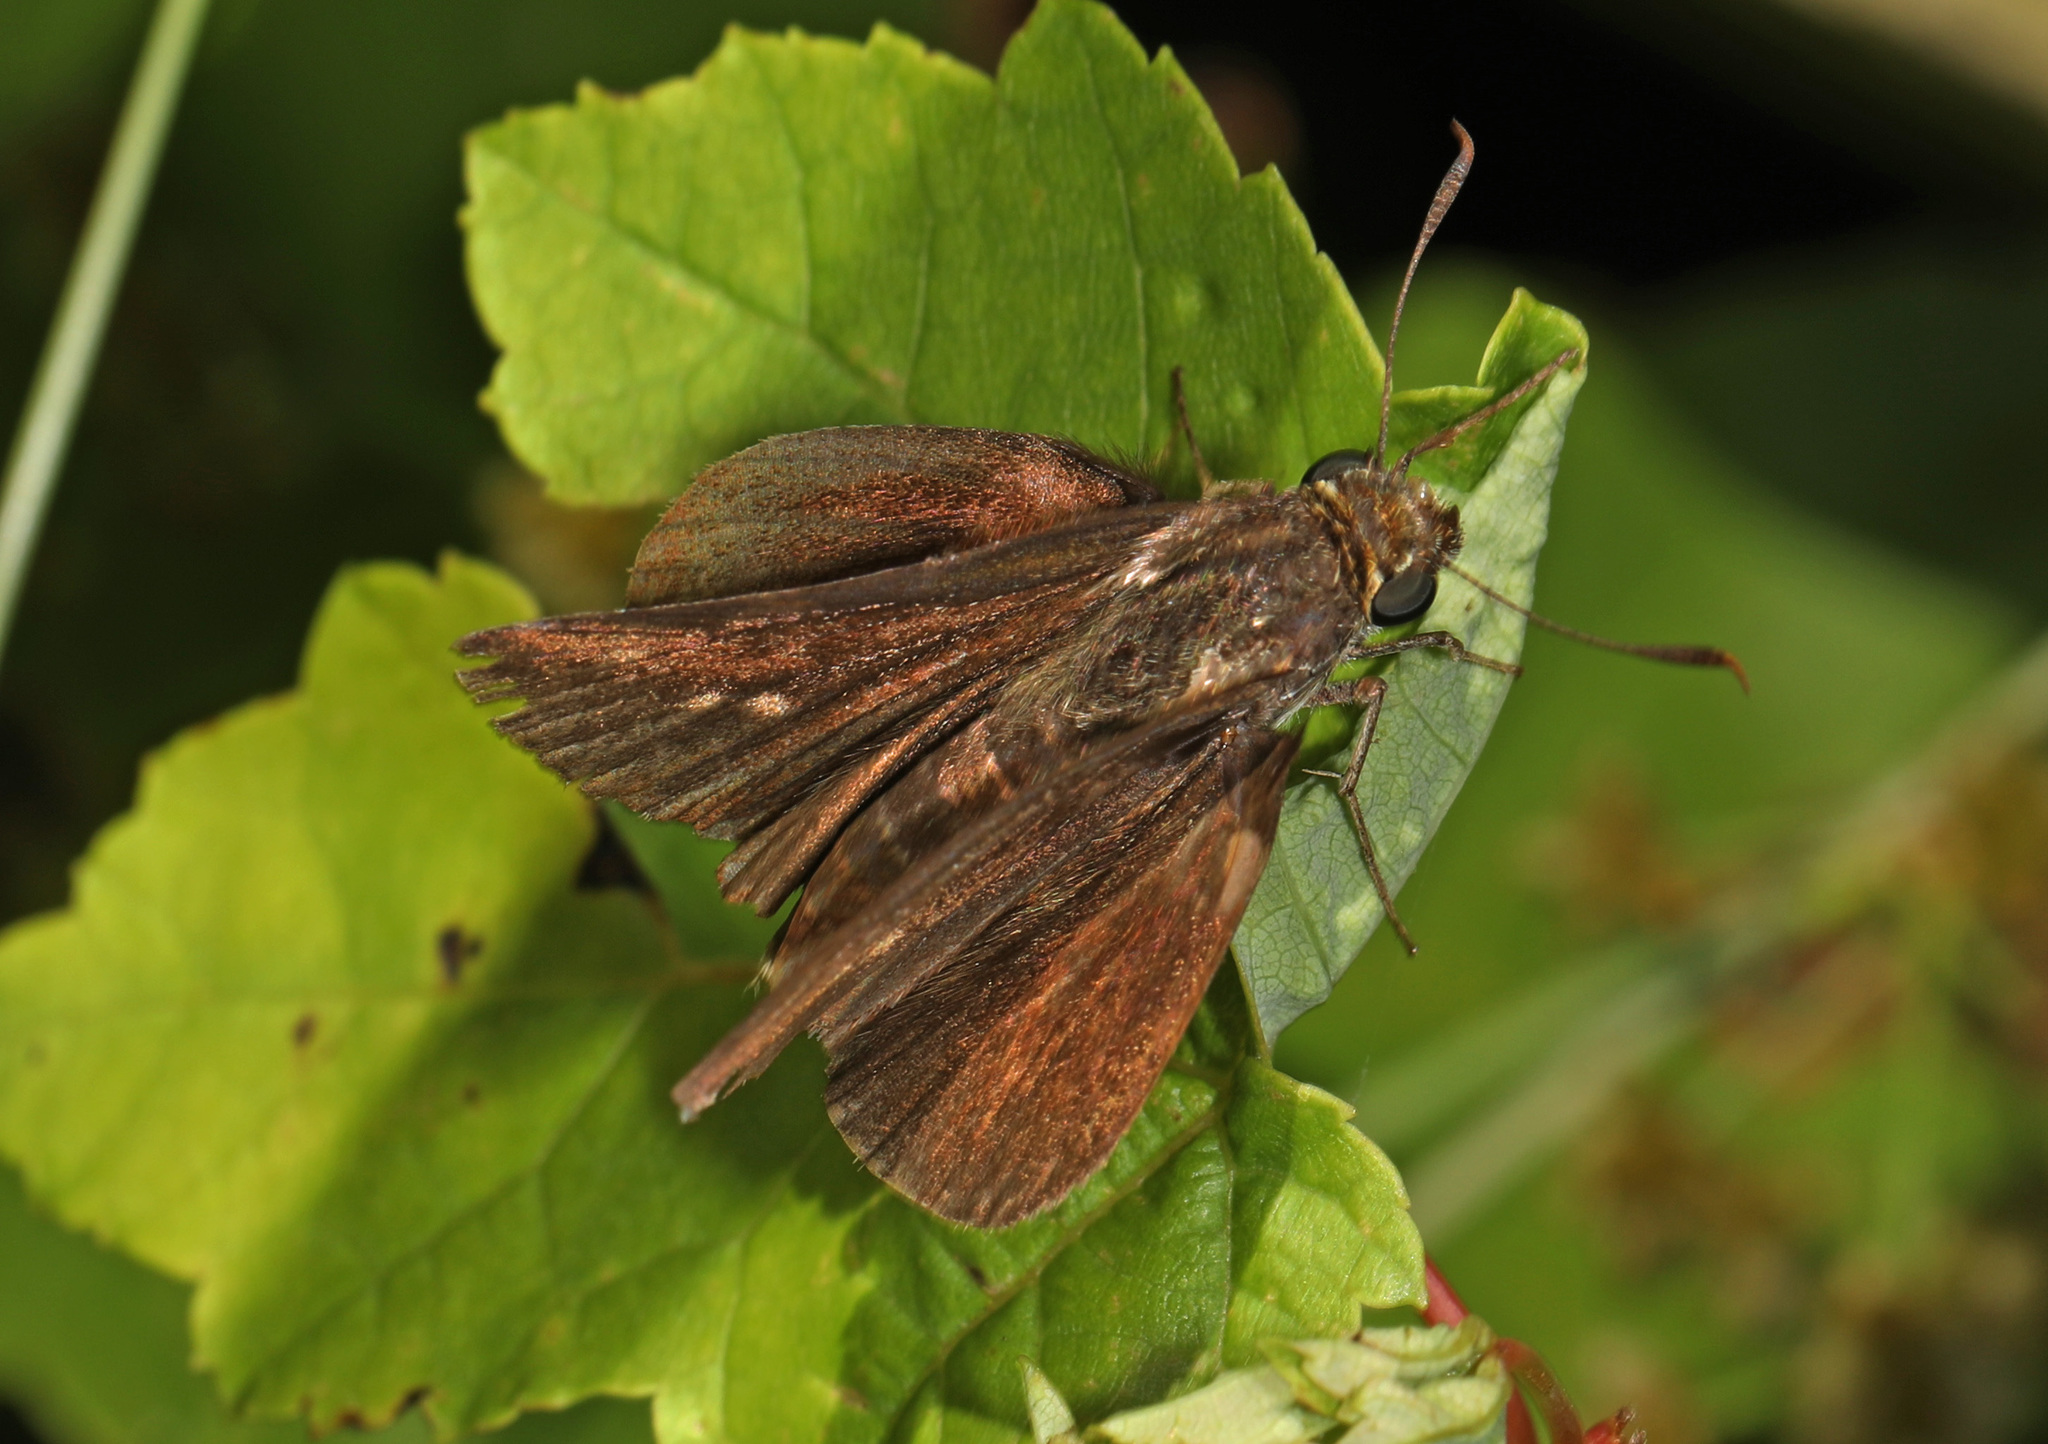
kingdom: Animalia
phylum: Arthropoda
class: Insecta
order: Lepidoptera
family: Hesperiidae
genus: Euphyes
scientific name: Euphyes vestris
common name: Dun skipper
